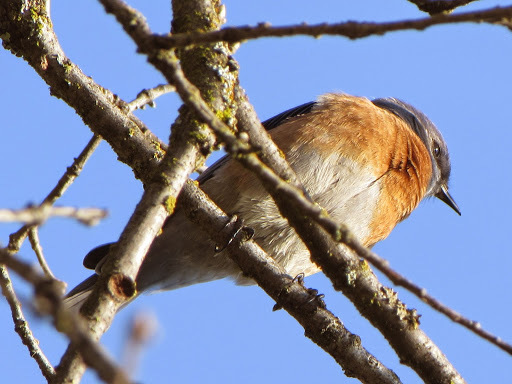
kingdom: Animalia
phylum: Chordata
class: Aves
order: Passeriformes
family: Turdidae
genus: Sialia
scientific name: Sialia mexicana
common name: Western bluebird
